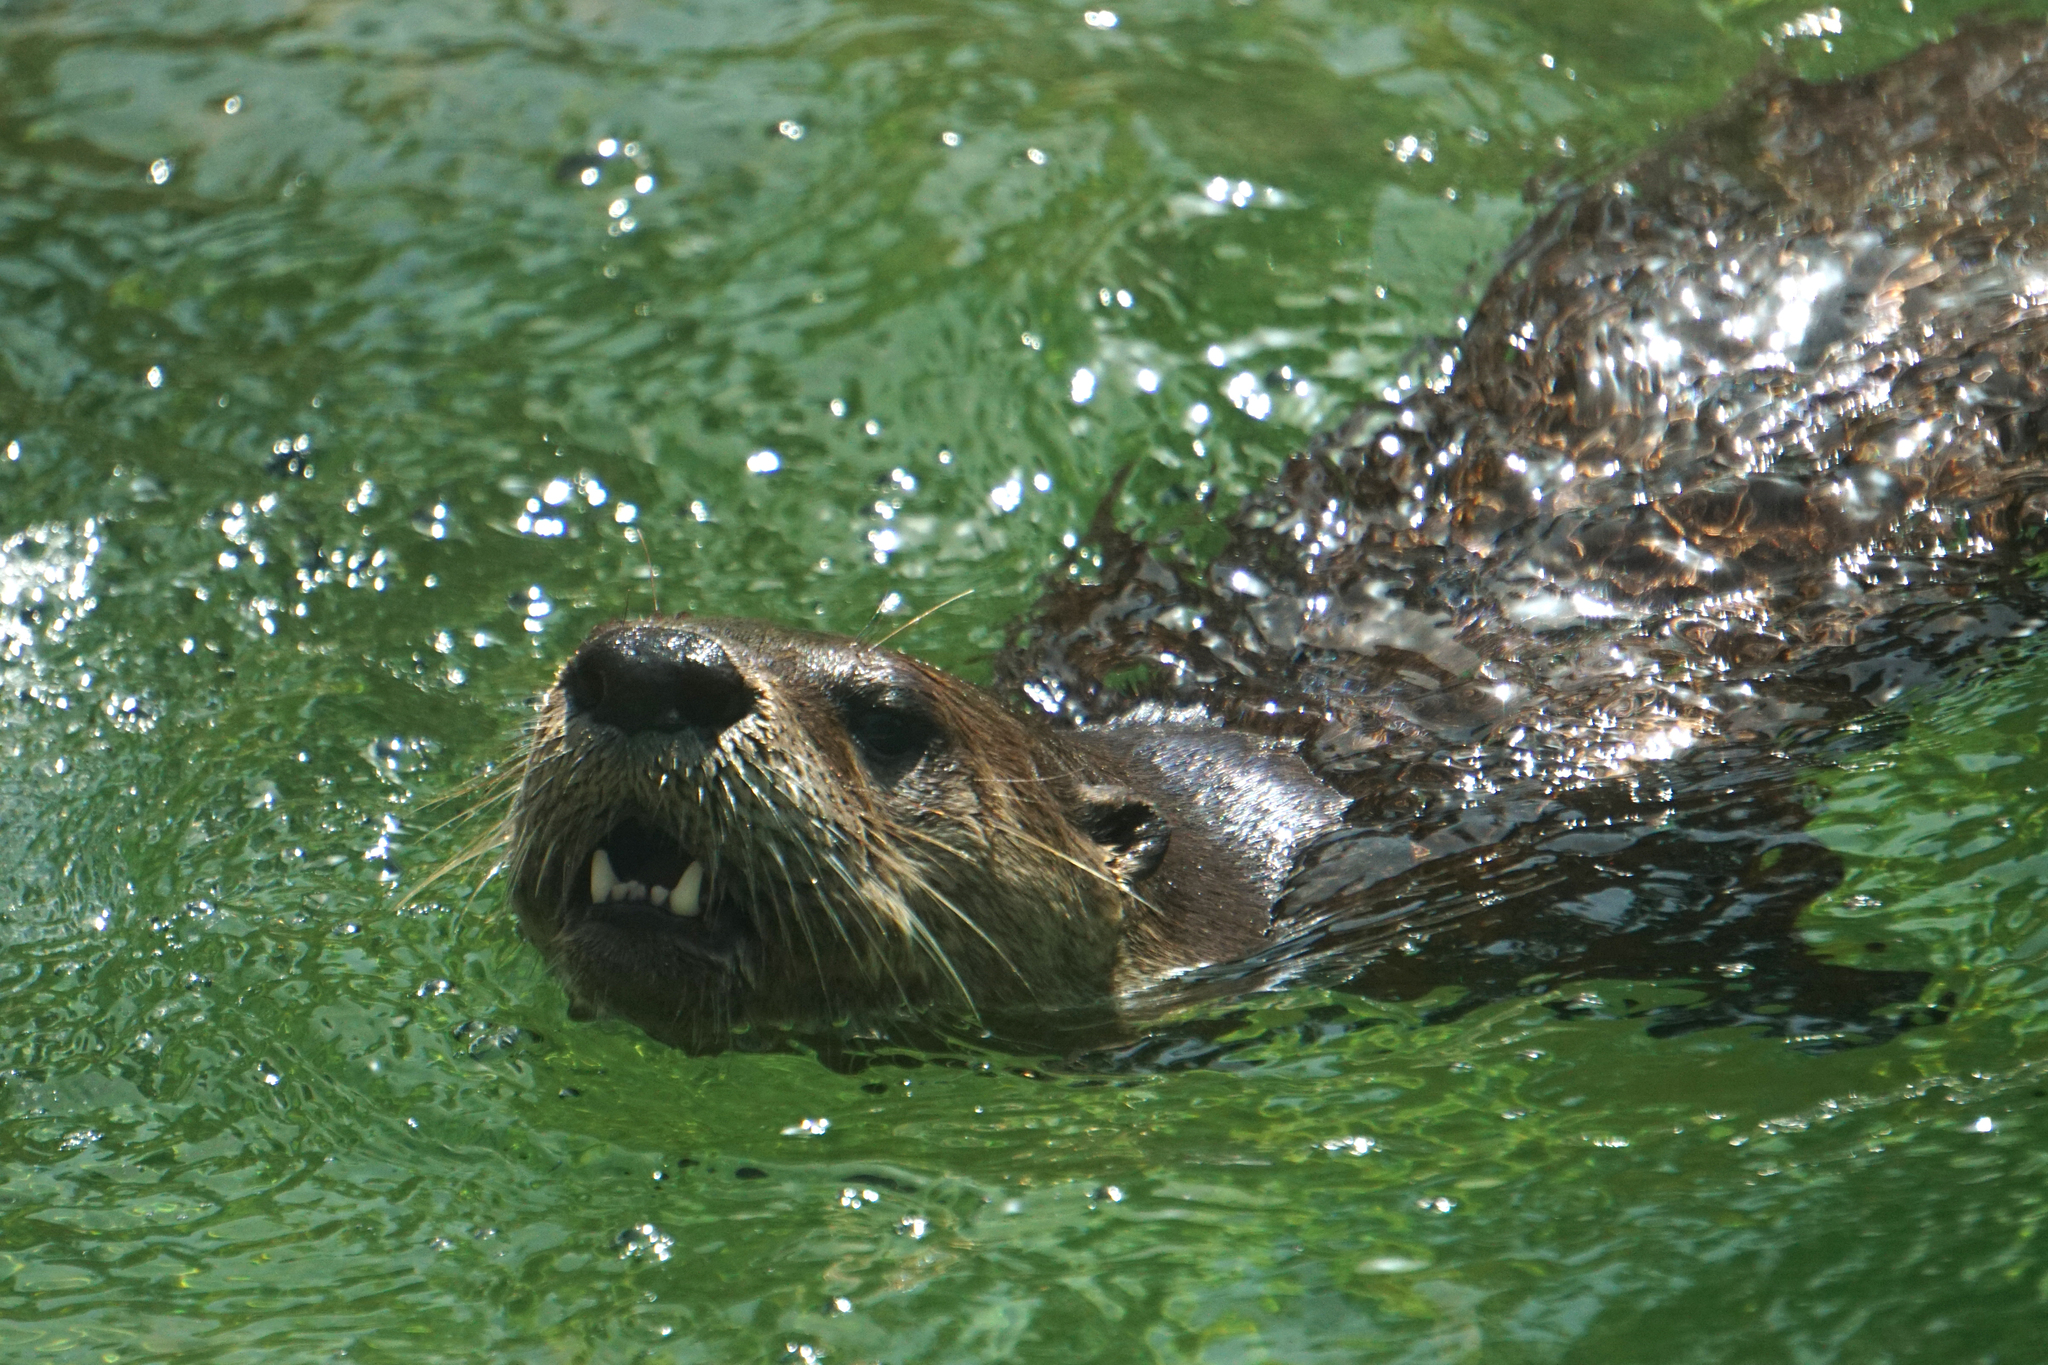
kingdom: Animalia
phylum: Chordata
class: Mammalia
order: Carnivora
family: Mustelidae
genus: Lontra
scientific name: Lontra canadensis
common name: North american river otter
